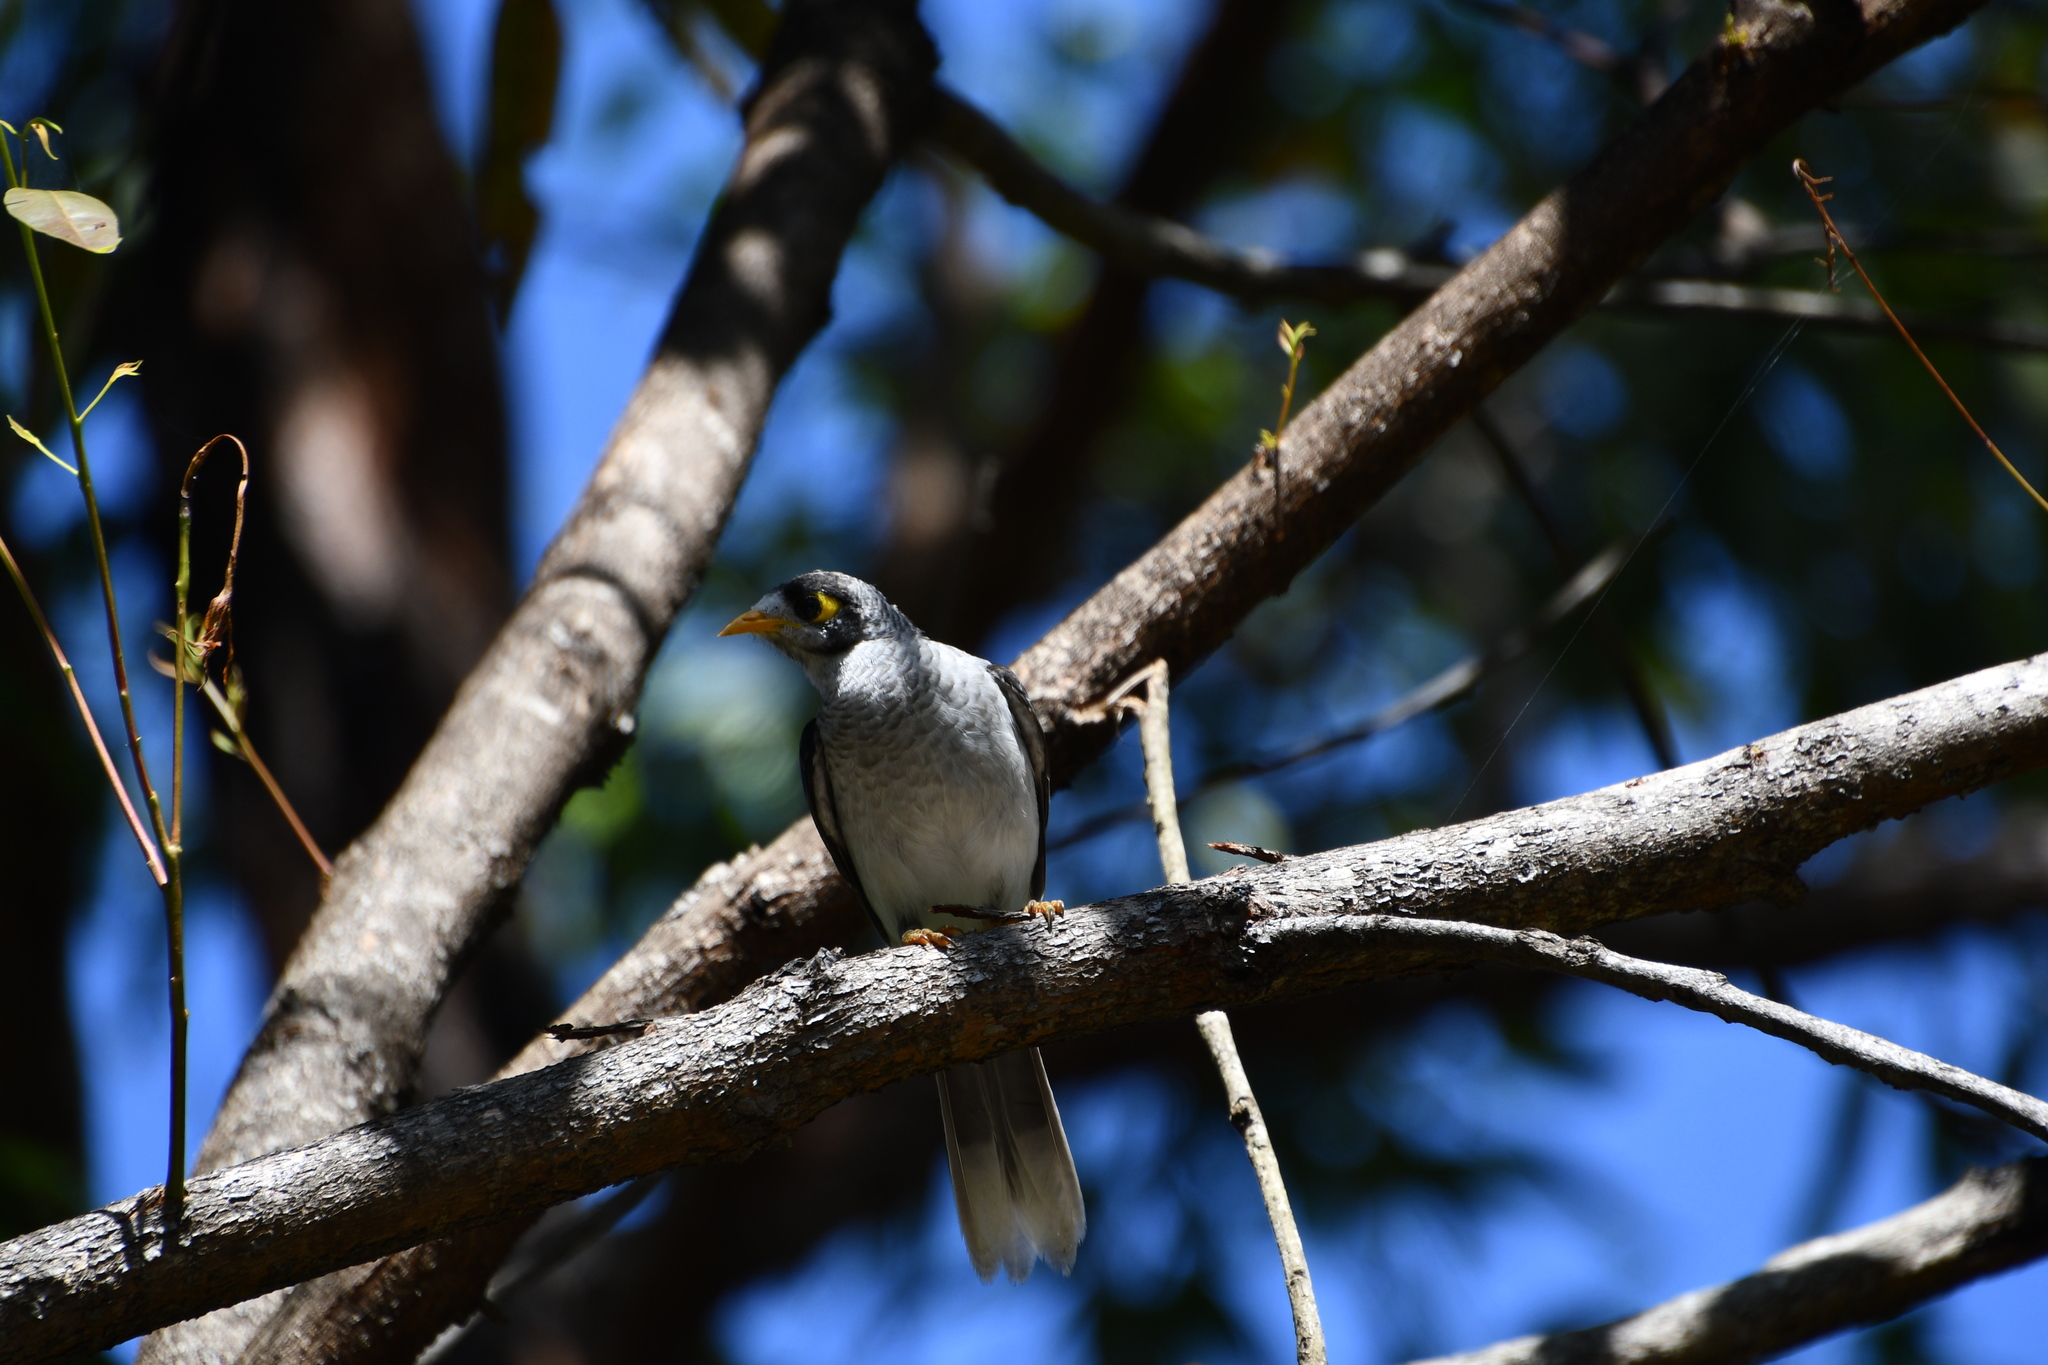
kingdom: Animalia
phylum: Chordata
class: Aves
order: Passeriformes
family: Meliphagidae
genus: Manorina
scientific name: Manorina melanocephala
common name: Noisy miner
